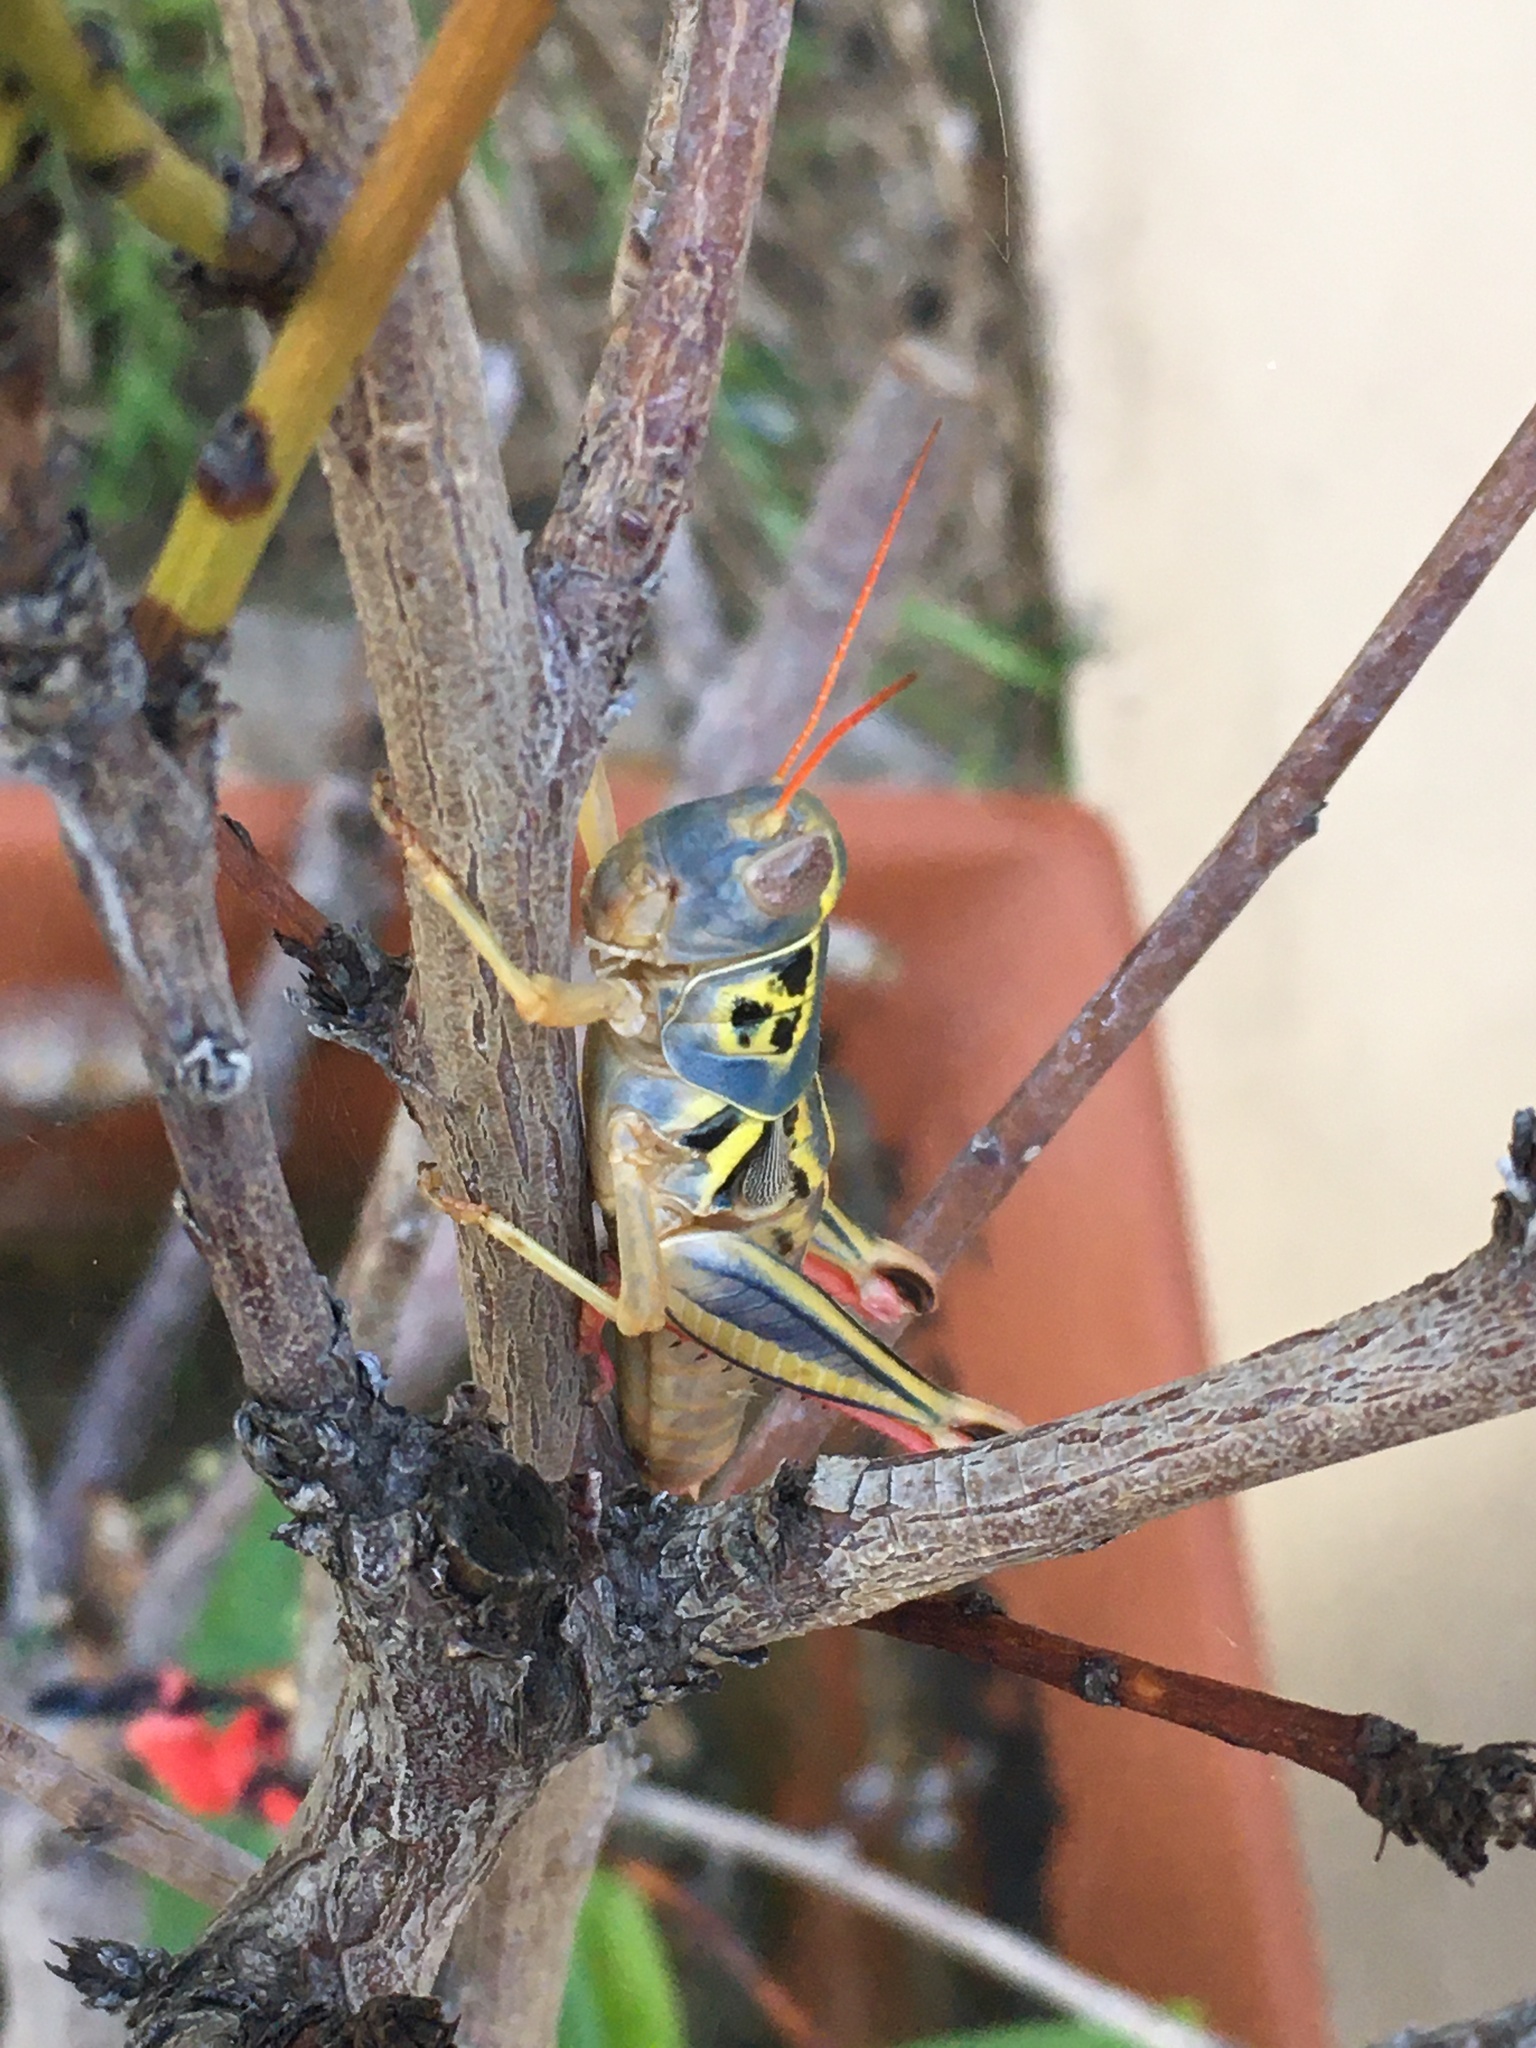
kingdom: Animalia
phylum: Arthropoda
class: Insecta
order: Orthoptera
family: Acrididae
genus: Barytettix
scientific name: Barytettix humphreysii
